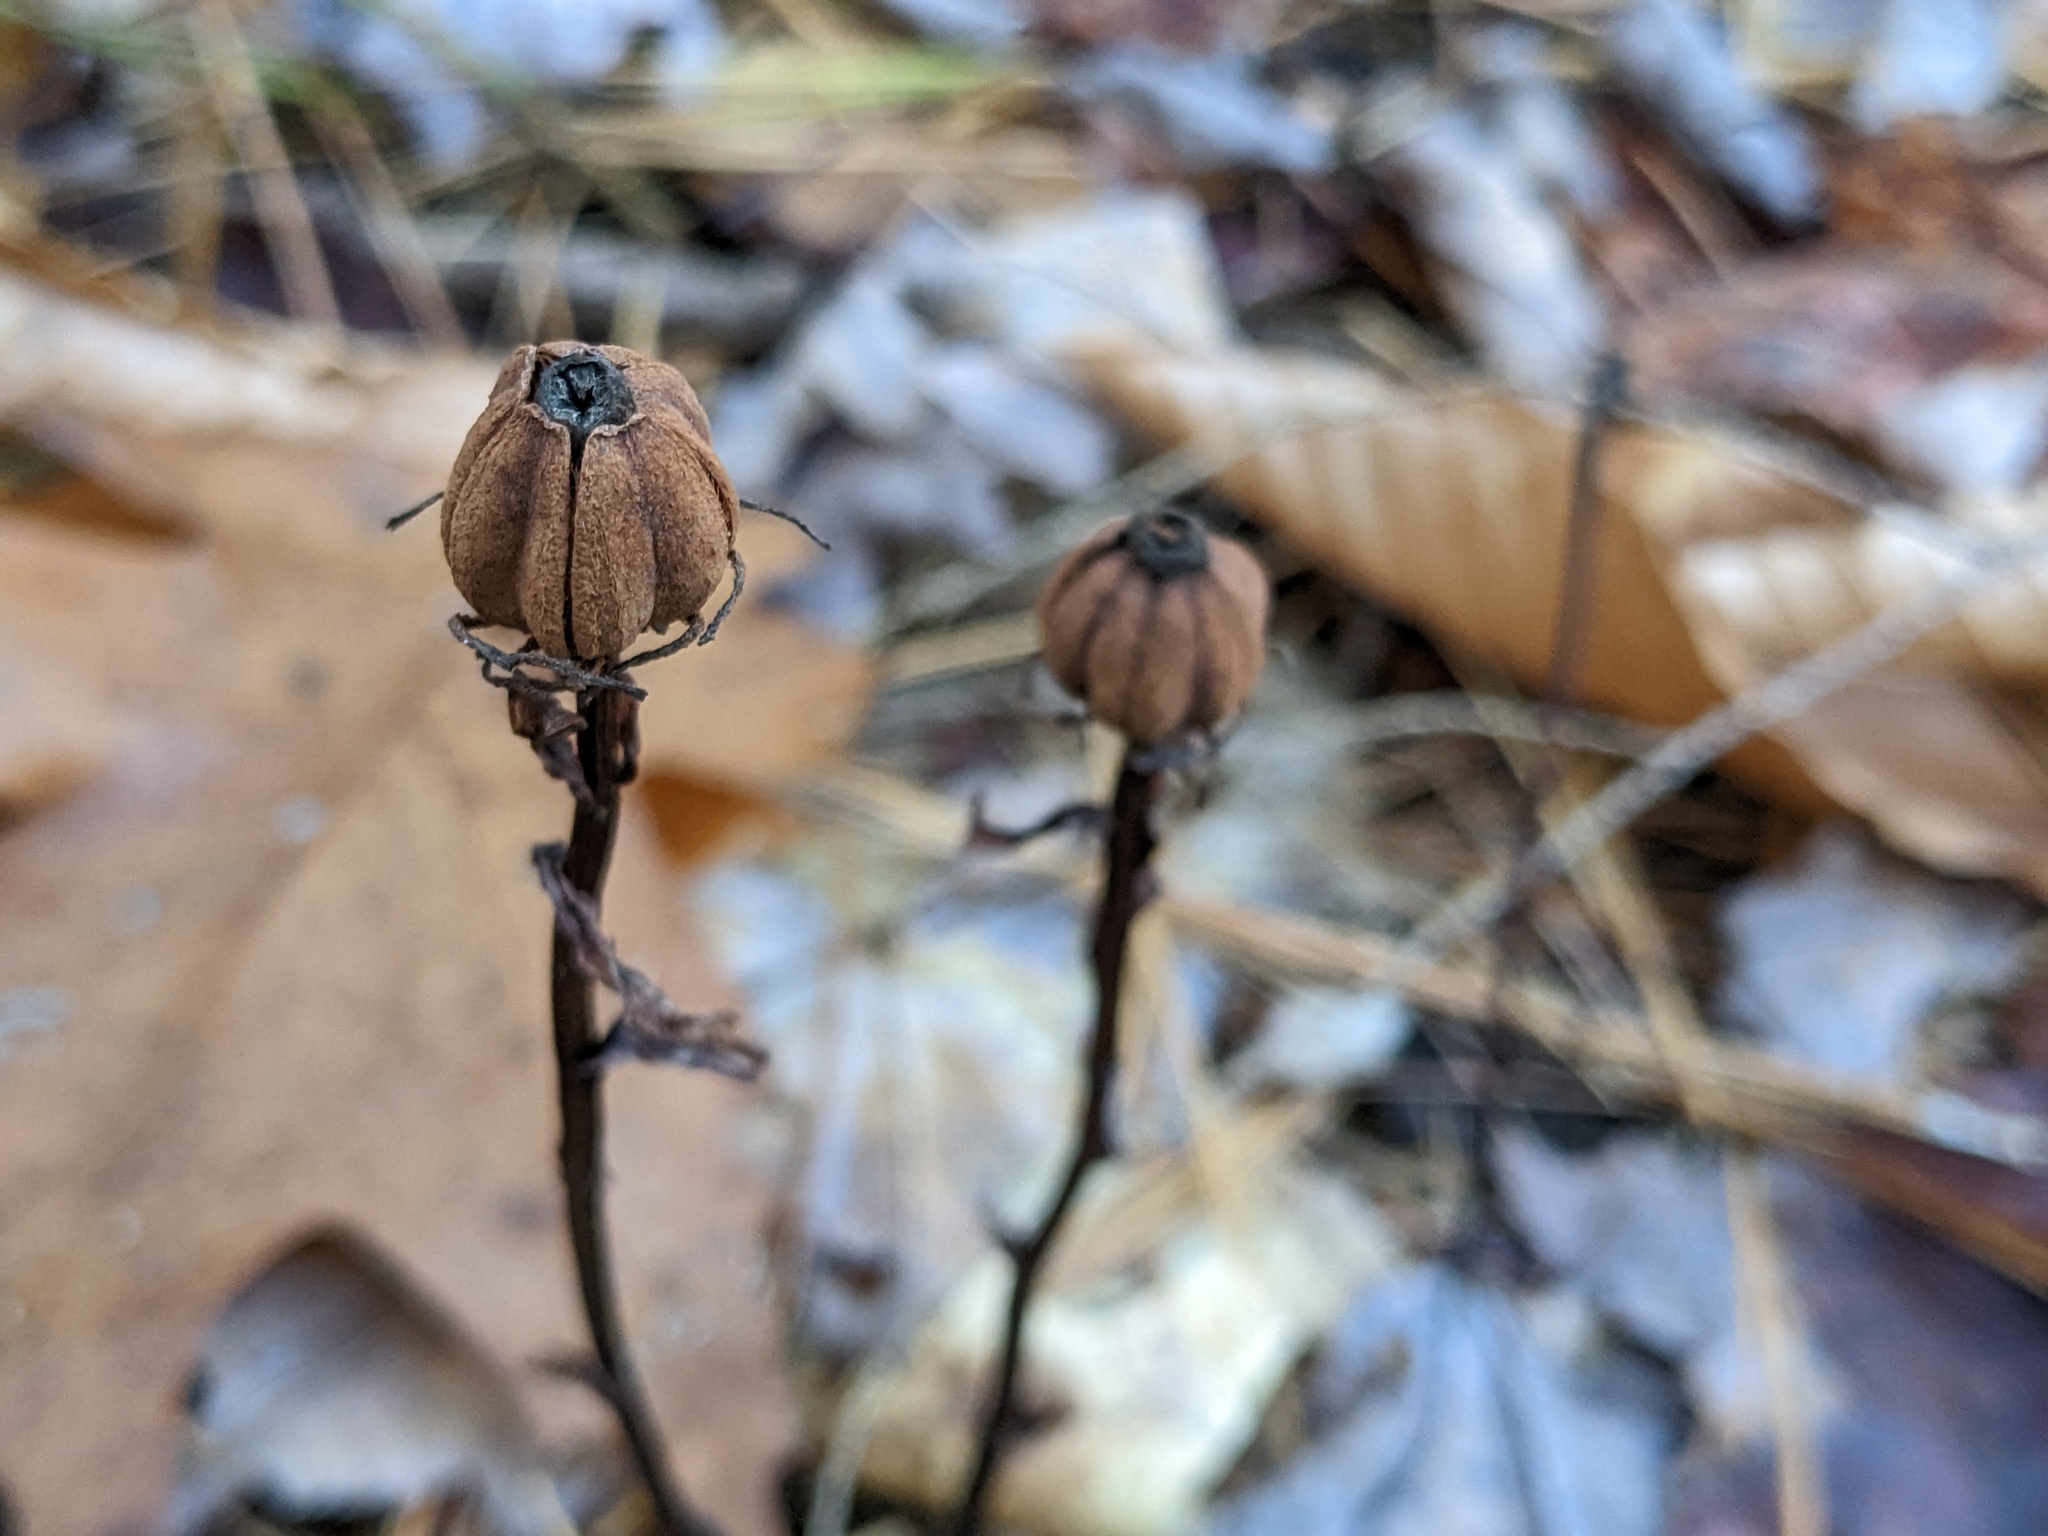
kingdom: Plantae
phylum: Tracheophyta
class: Magnoliopsida
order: Ericales
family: Ericaceae
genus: Monotropa
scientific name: Monotropa uniflora
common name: Convulsion root
